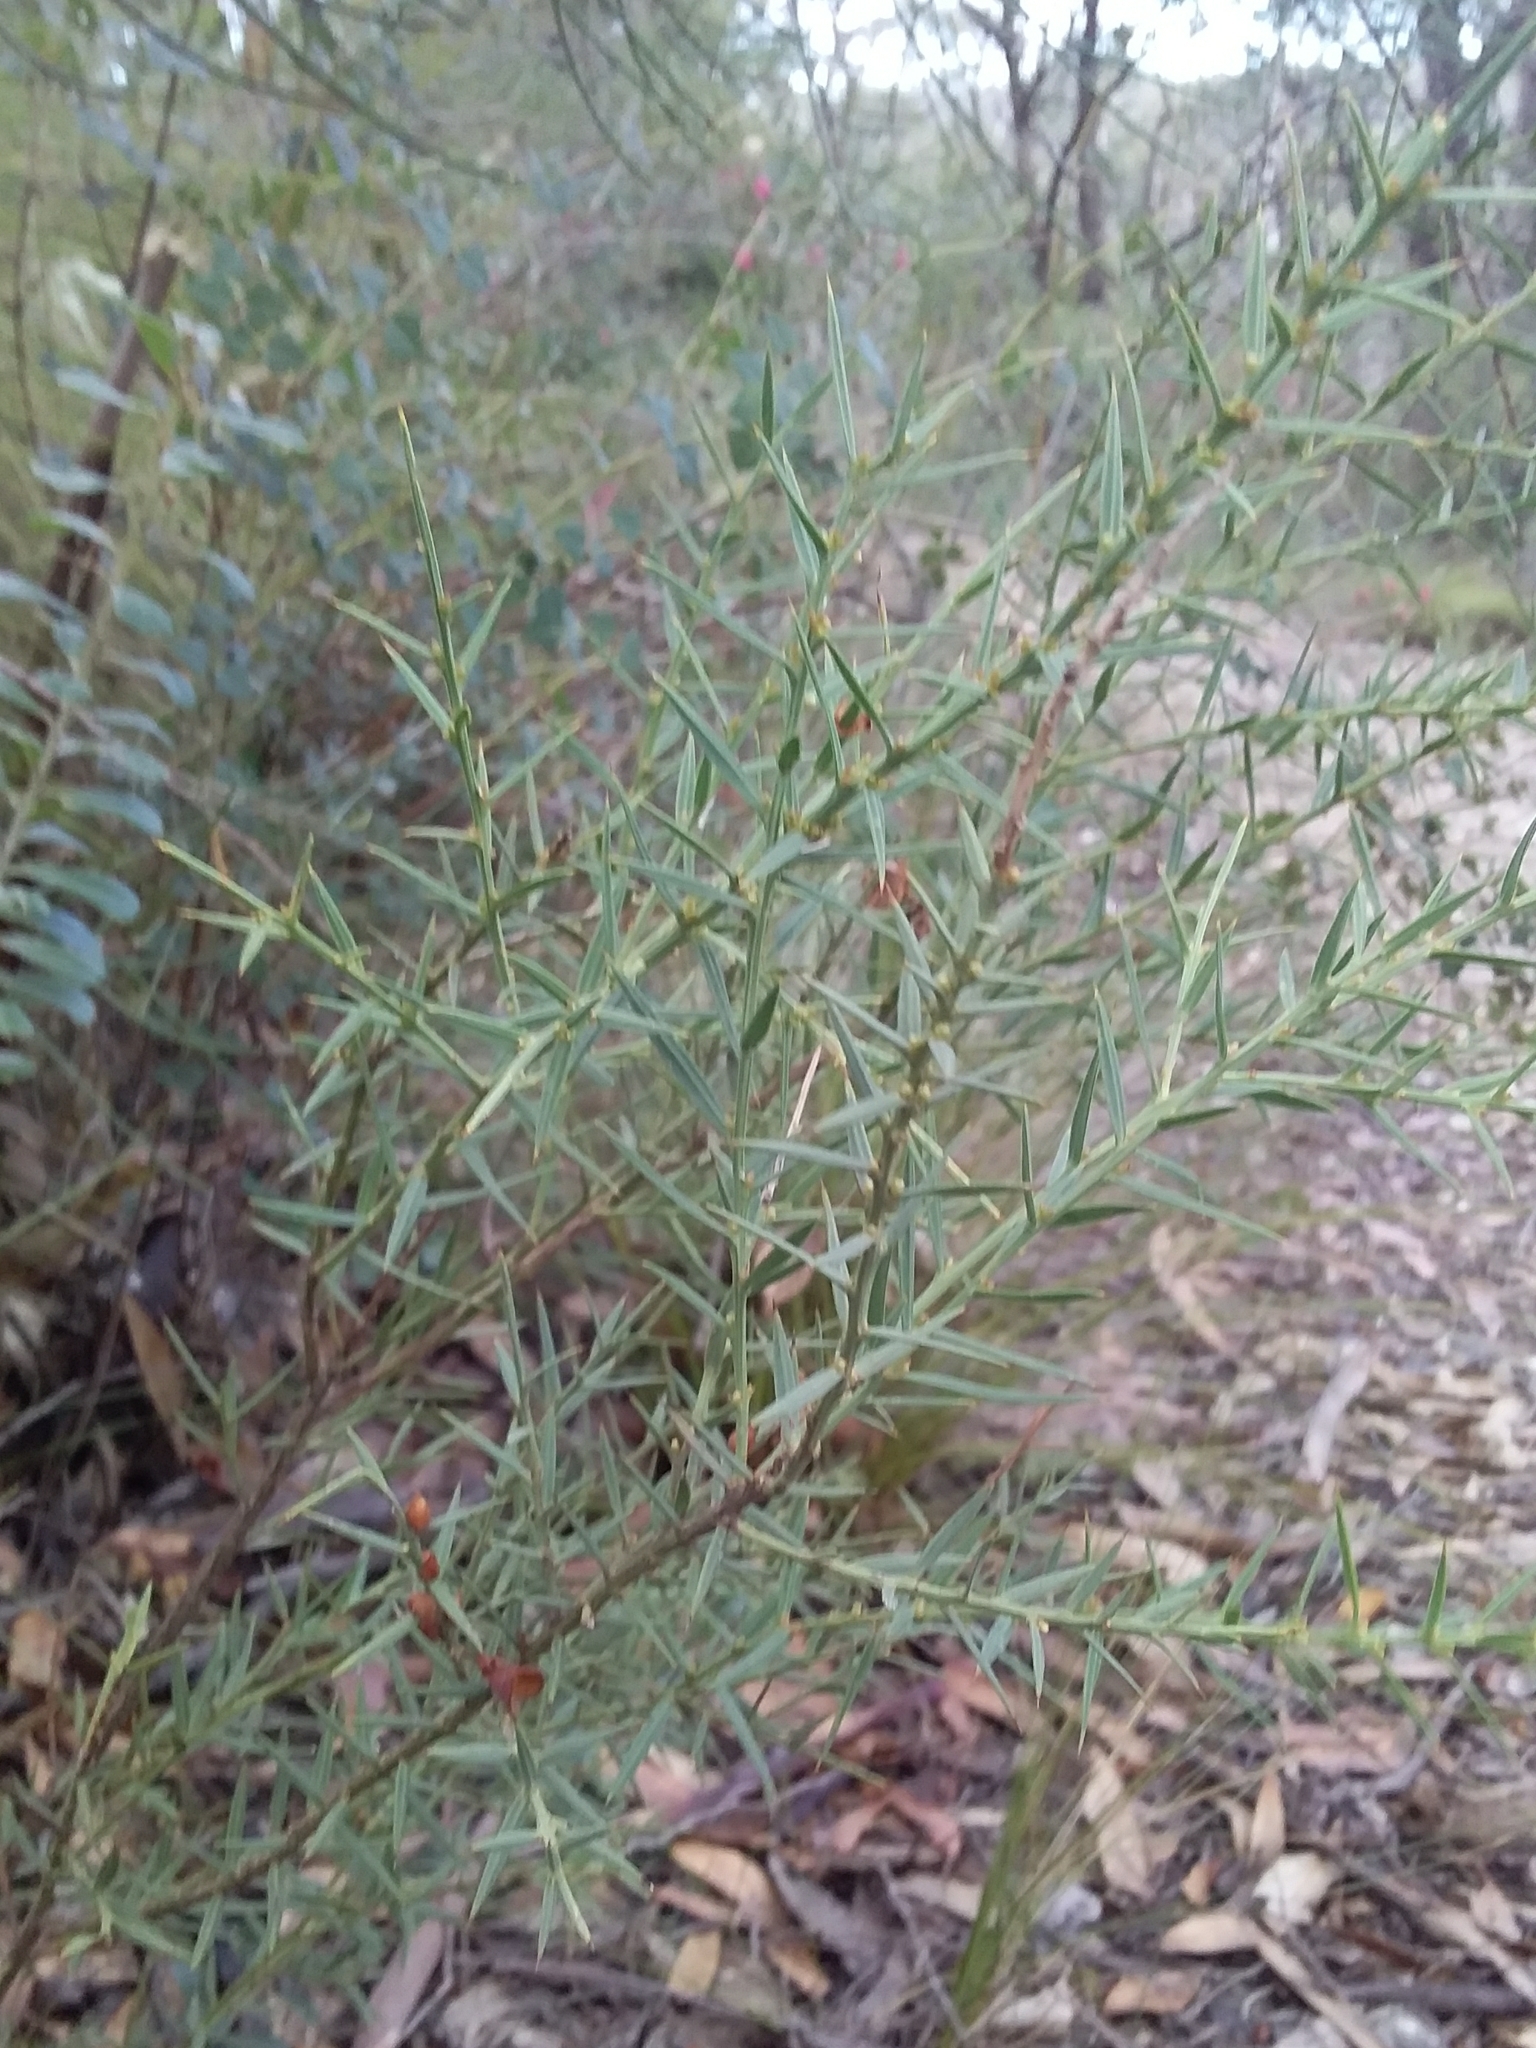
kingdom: Plantae
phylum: Tracheophyta
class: Magnoliopsida
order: Fabales
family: Fabaceae
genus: Daviesia
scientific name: Daviesia ulicifolia
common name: Gorse bitter-pea
